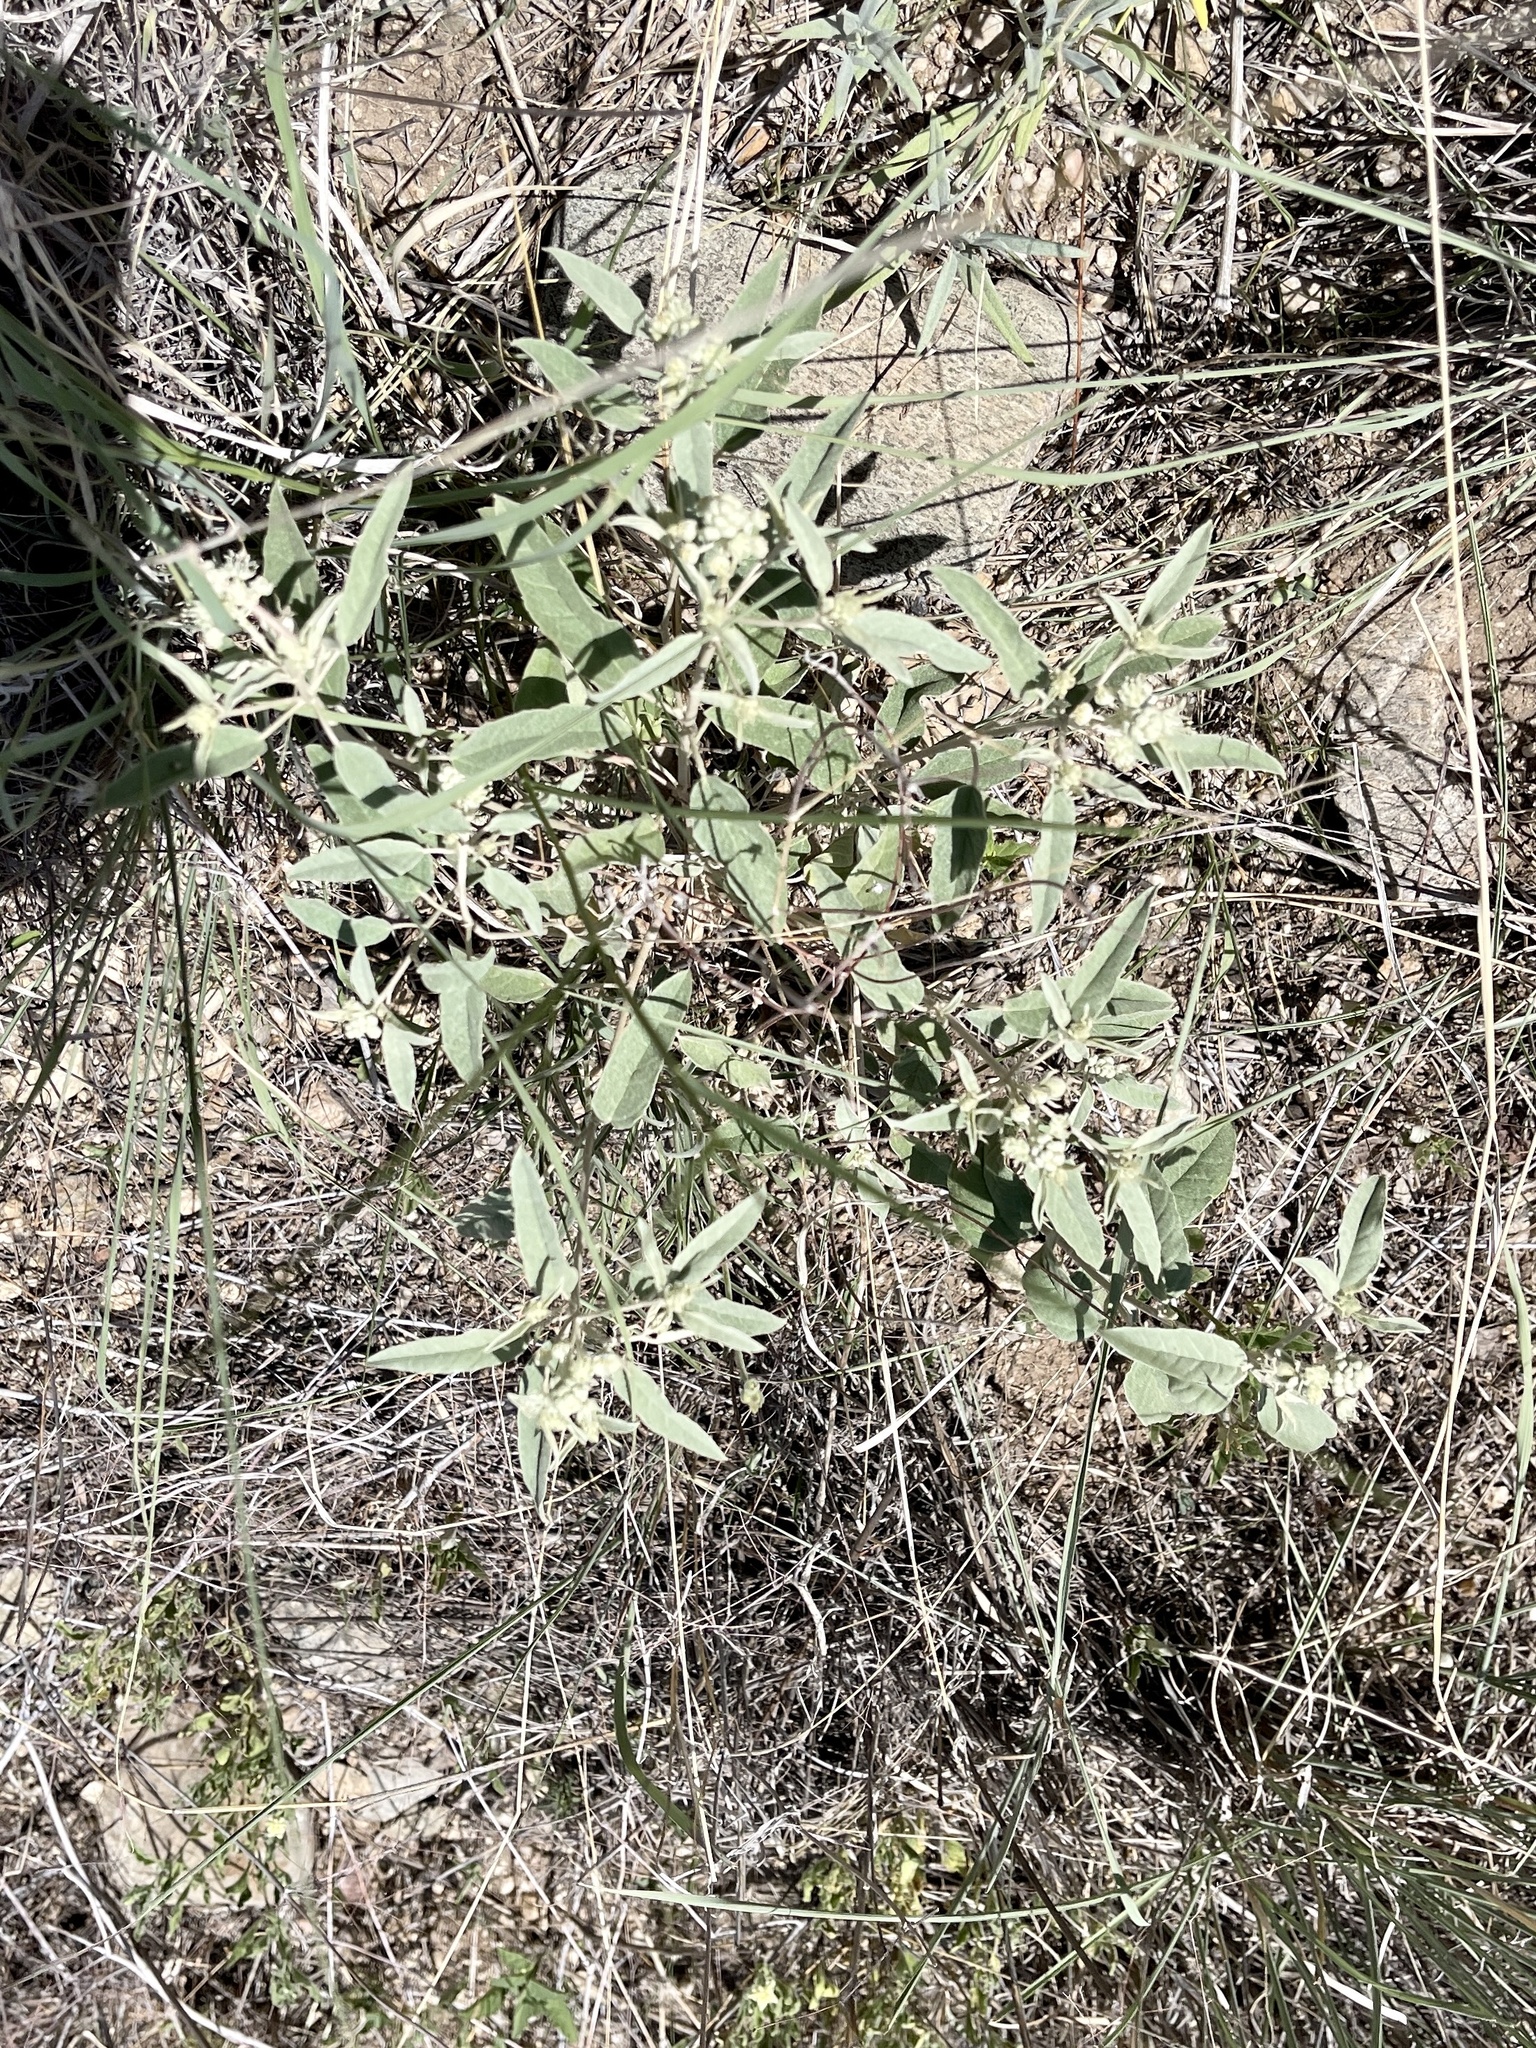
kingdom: Plantae
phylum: Tracheophyta
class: Magnoliopsida
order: Malpighiales
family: Euphorbiaceae
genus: Croton
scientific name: Croton pottsii
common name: Leatherweed
